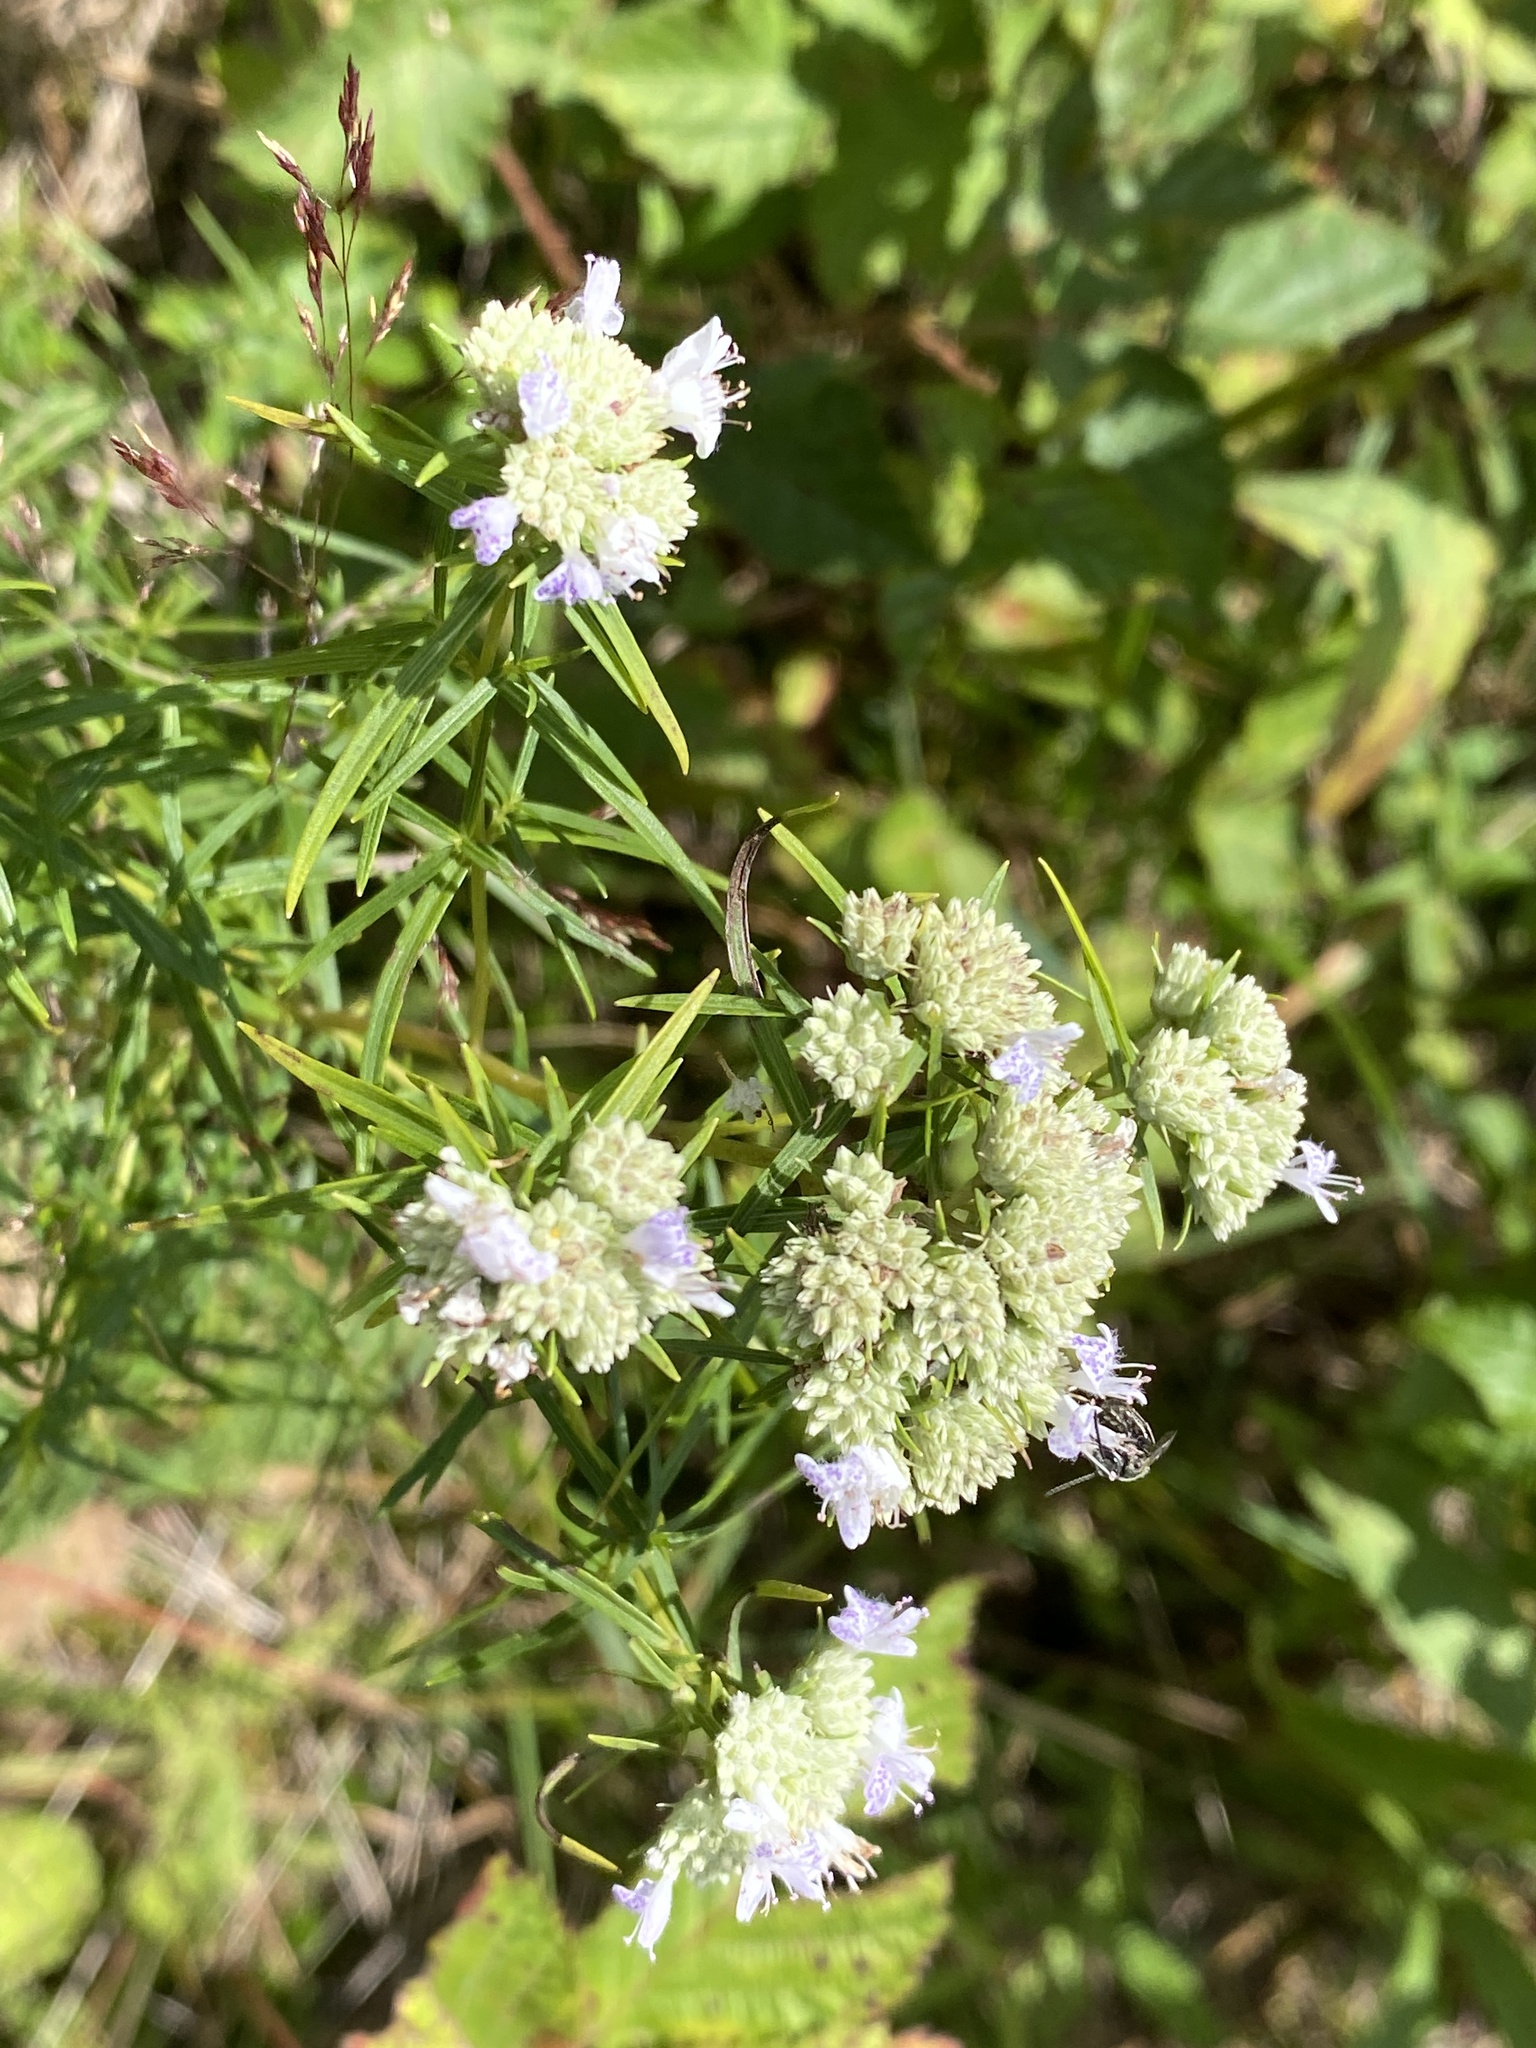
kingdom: Plantae
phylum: Tracheophyta
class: Magnoliopsida
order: Lamiales
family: Lamiaceae
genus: Pycnanthemum
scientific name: Pycnanthemum tenuifolium
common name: Narrow-leaf mountain-mint
